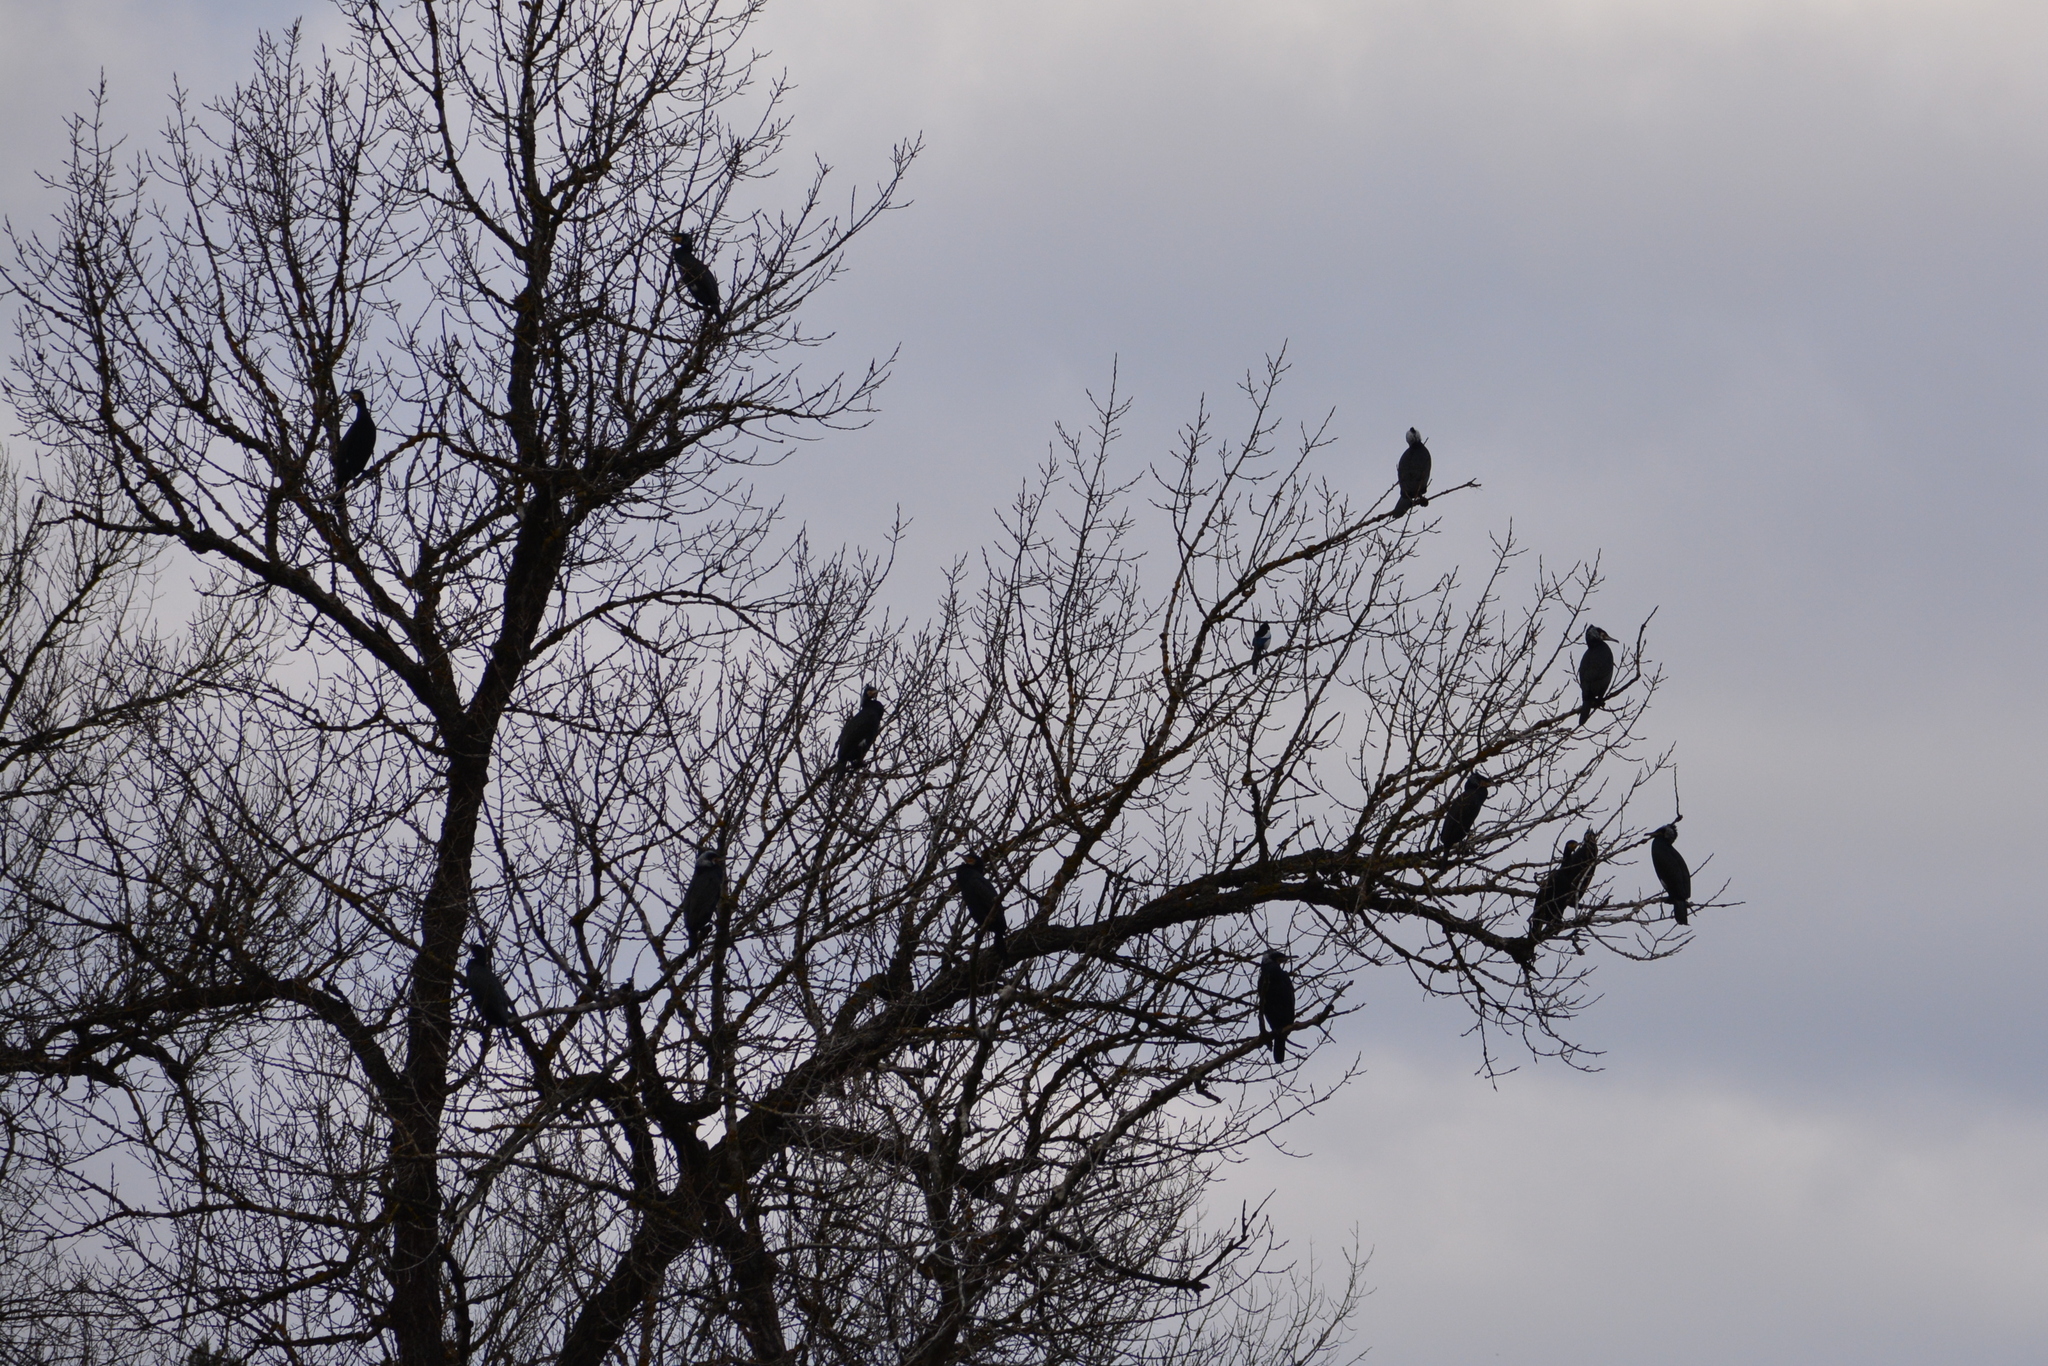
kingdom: Animalia
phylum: Chordata
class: Aves
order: Suliformes
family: Phalacrocoracidae
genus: Phalacrocorax
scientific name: Phalacrocorax carbo
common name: Great cormorant
